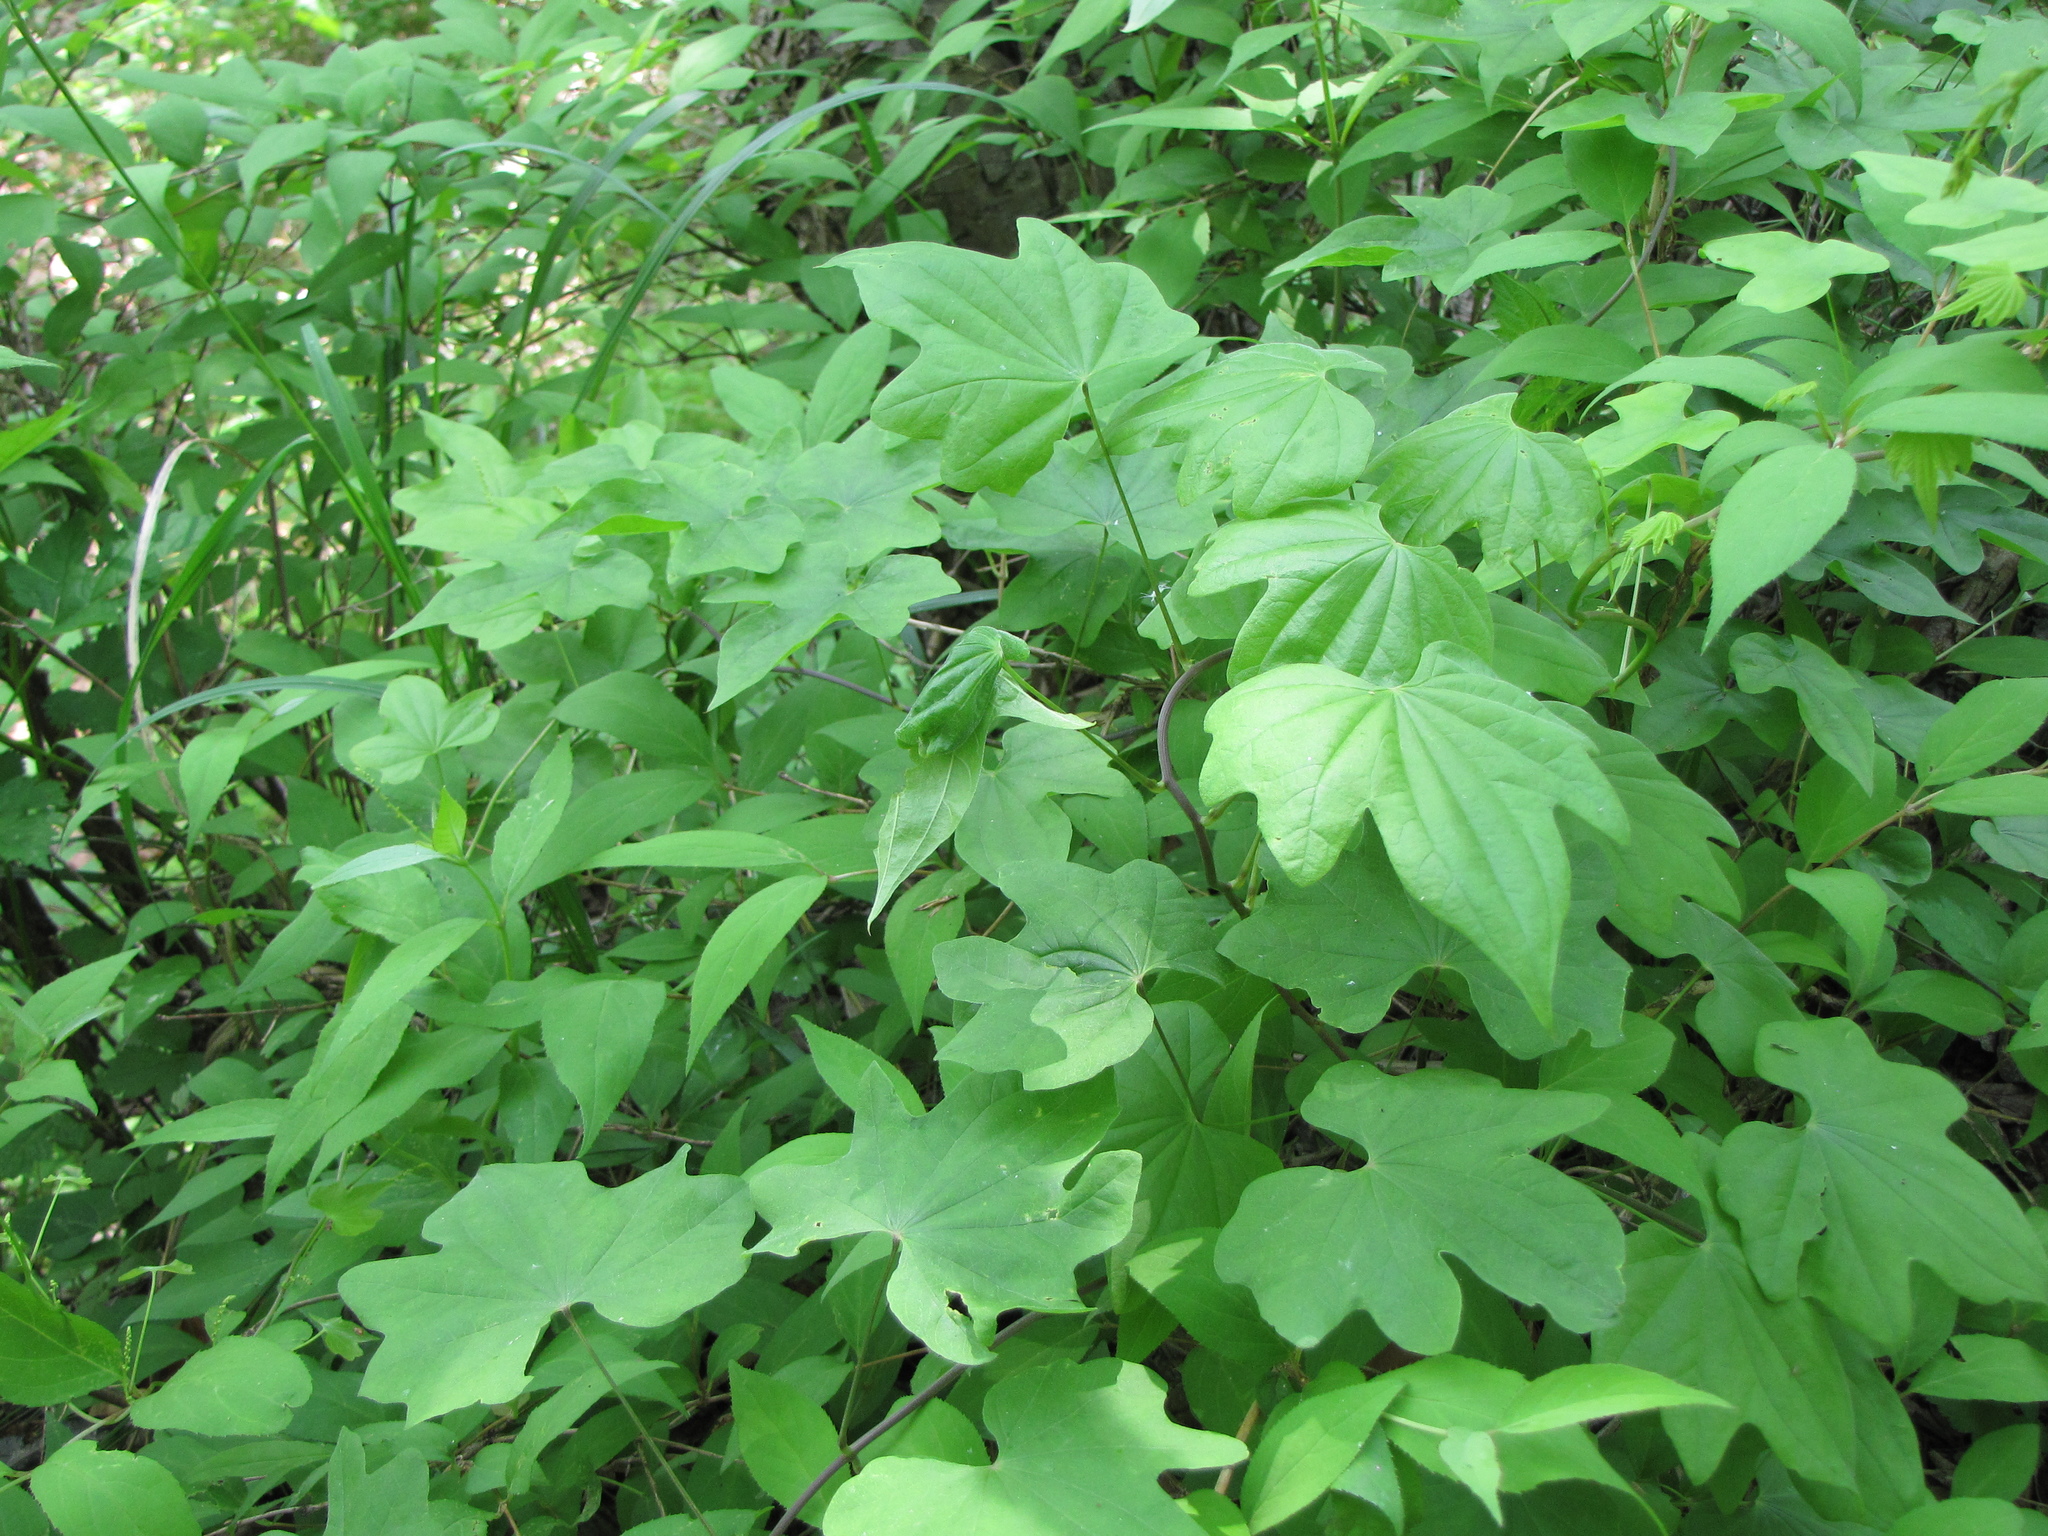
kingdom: Plantae
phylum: Tracheophyta
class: Liliopsida
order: Dioscoreales
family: Dioscoreaceae
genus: Dioscorea
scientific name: Dioscorea nipponica
